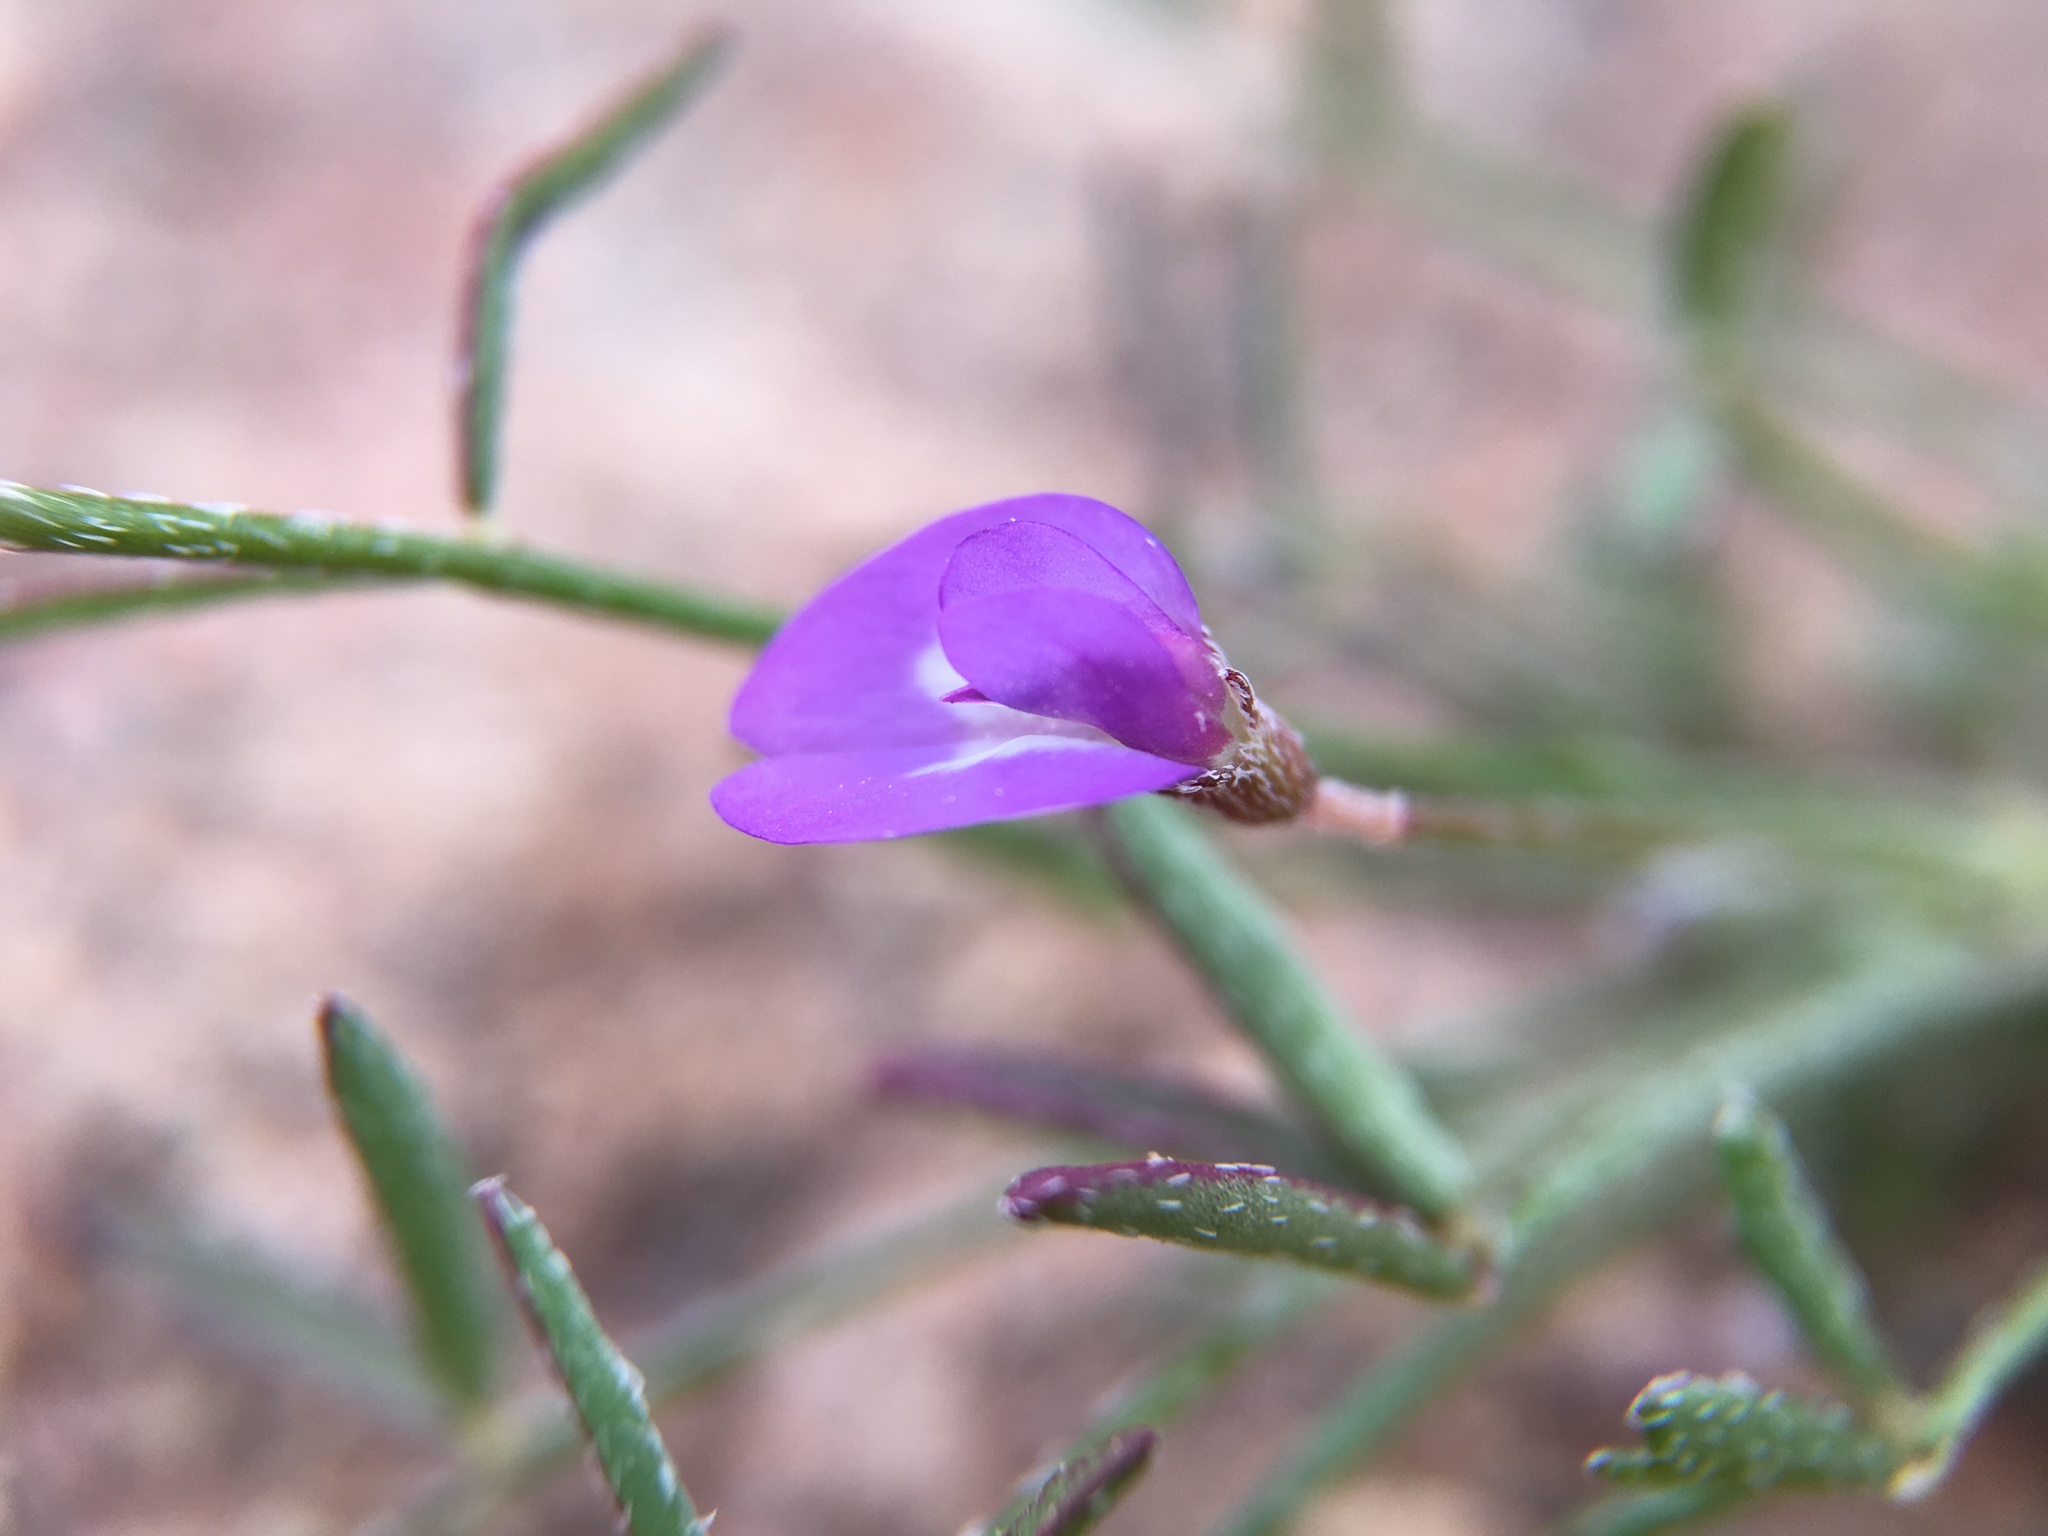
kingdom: Plantae
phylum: Tracheophyta
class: Magnoliopsida
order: Fabales
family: Fabaceae
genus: Astragalus
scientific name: Astragalus nuttallianus
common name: Smallflowered milkvetch
